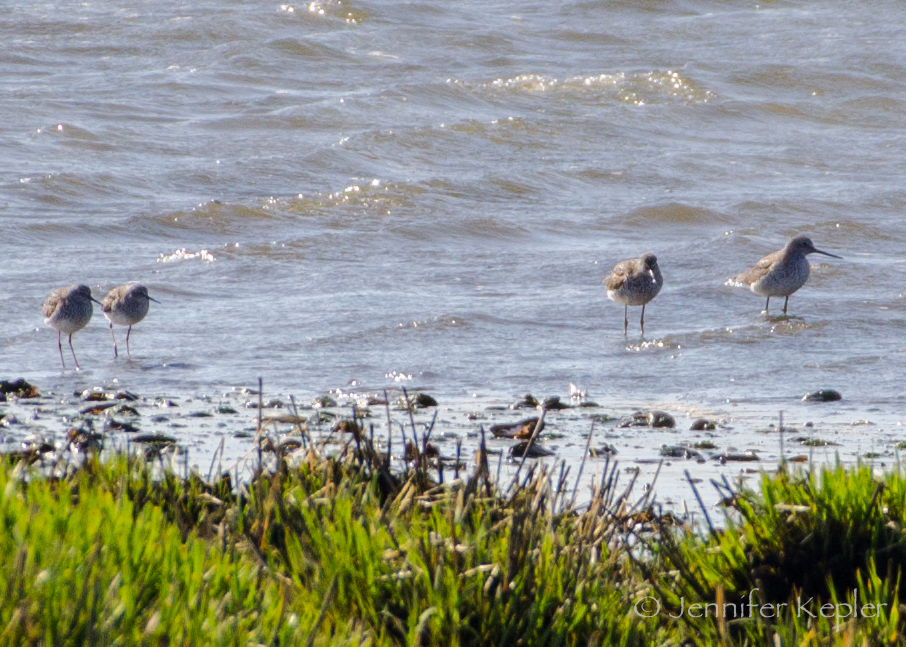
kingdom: Animalia
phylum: Chordata
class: Aves
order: Charadriiformes
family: Scolopacidae
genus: Tringa
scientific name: Tringa melanoleuca
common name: Greater yellowlegs
